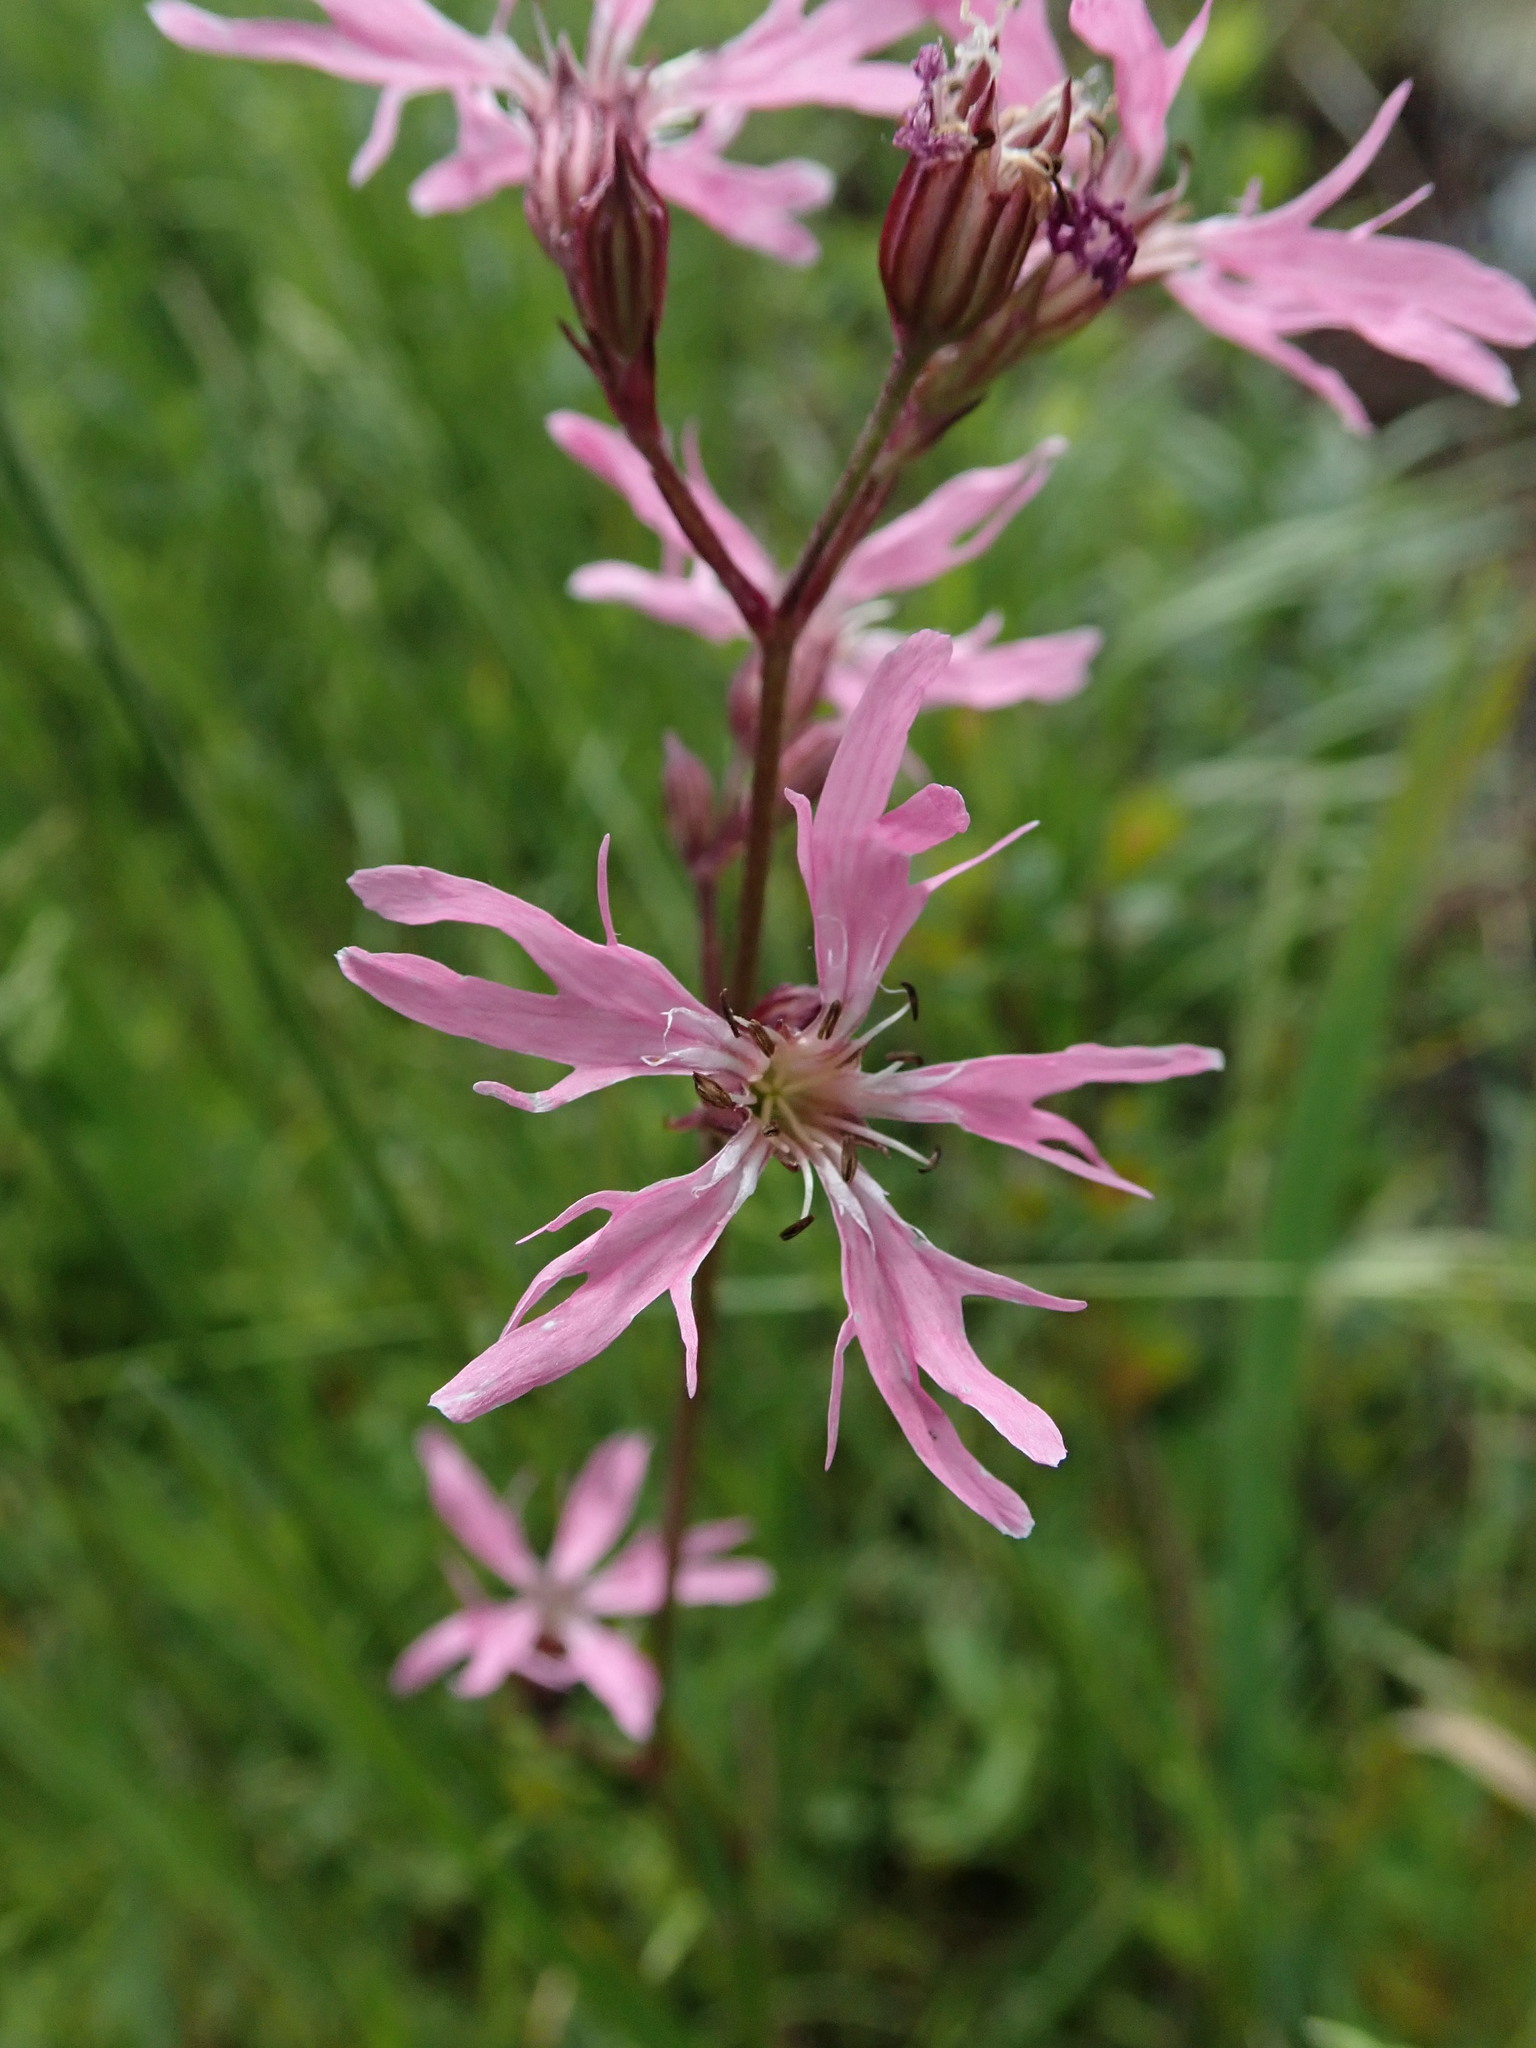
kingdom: Plantae
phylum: Tracheophyta
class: Magnoliopsida
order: Caryophyllales
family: Caryophyllaceae
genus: Silene
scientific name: Silene flos-cuculi
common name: Ragged-robin
